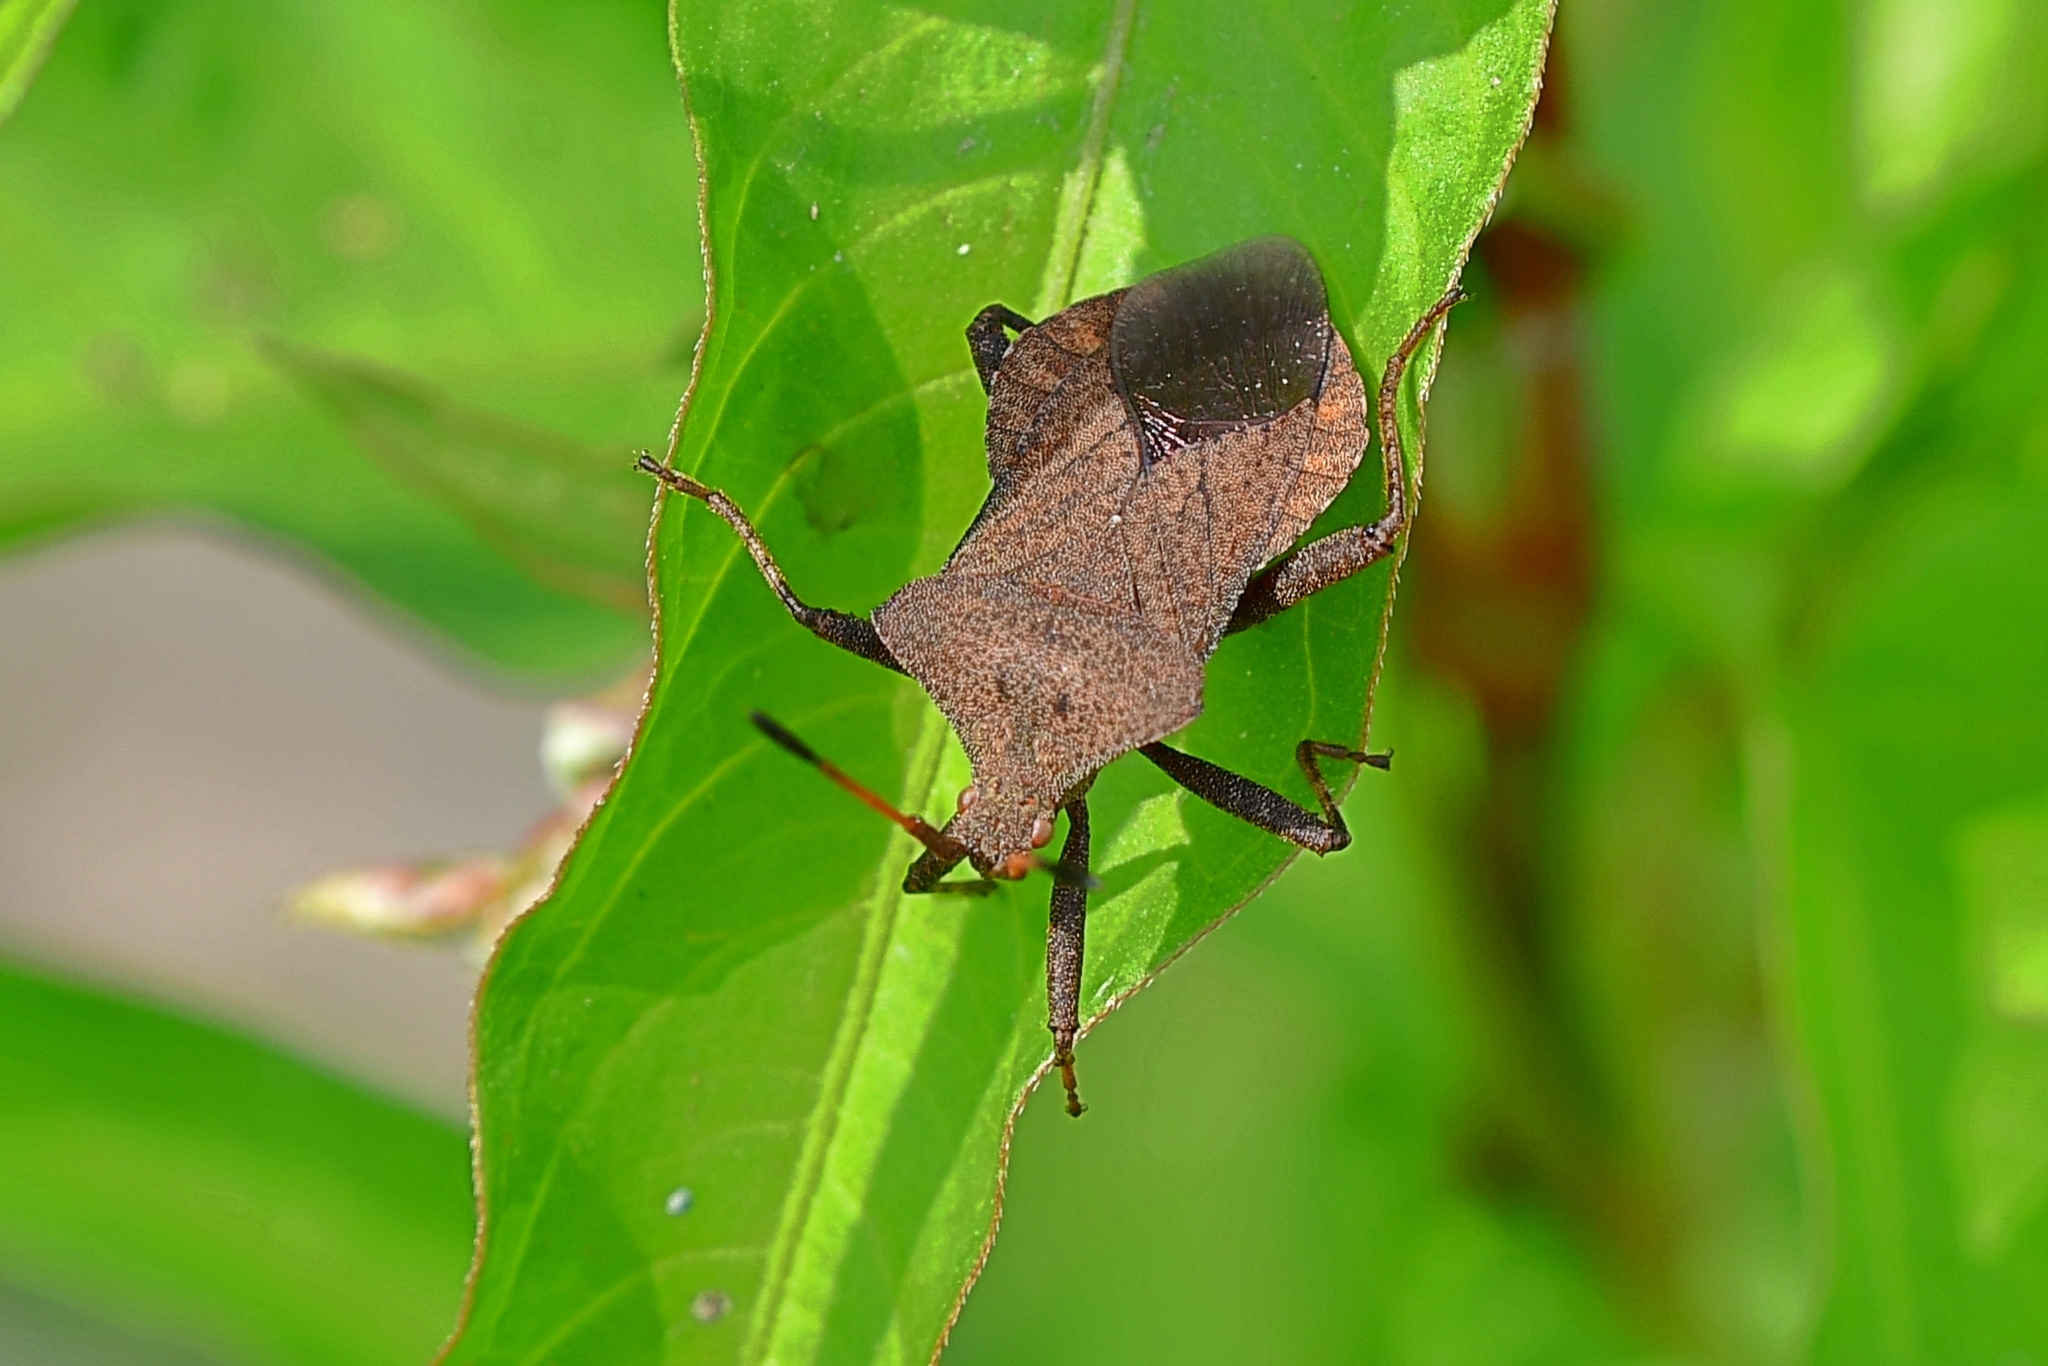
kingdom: Animalia
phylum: Arthropoda
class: Insecta
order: Hemiptera
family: Coreidae
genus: Coreus
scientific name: Coreus marginatus
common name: Dock bug
